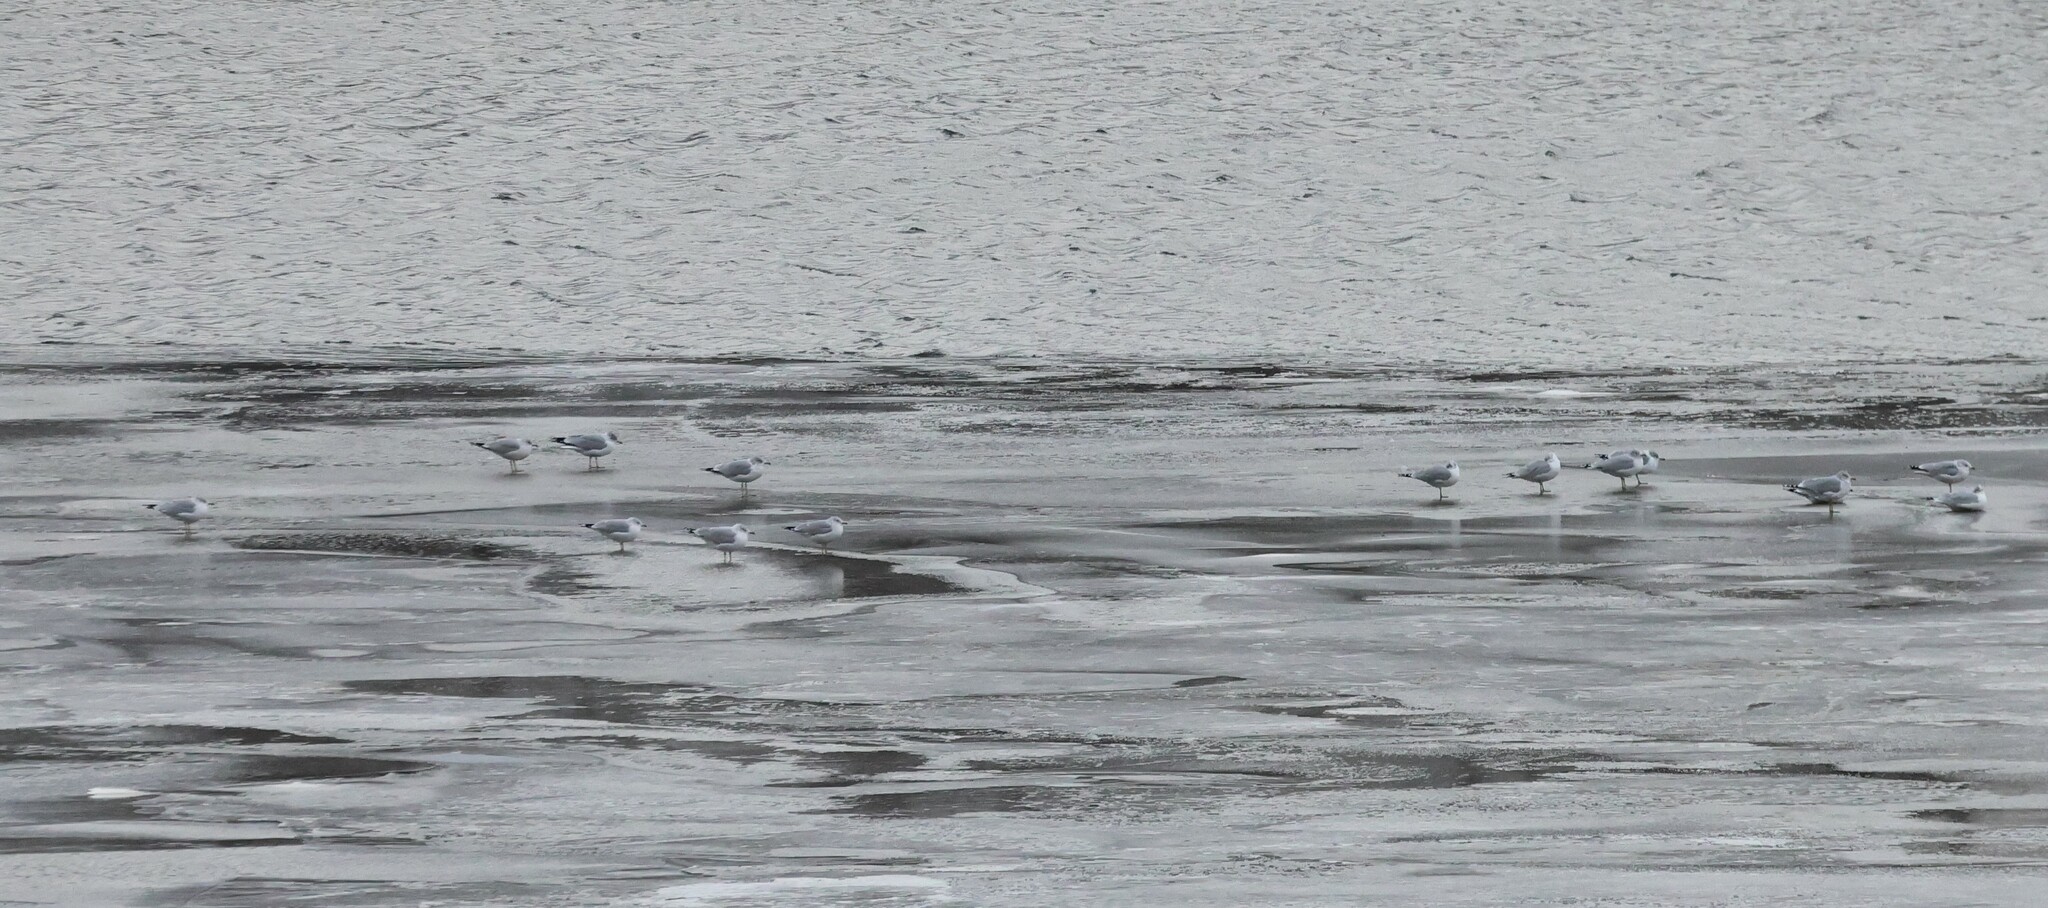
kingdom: Animalia
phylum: Chordata
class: Aves
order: Charadriiformes
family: Laridae
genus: Larus
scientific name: Larus delawarensis
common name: Ring-billed gull
